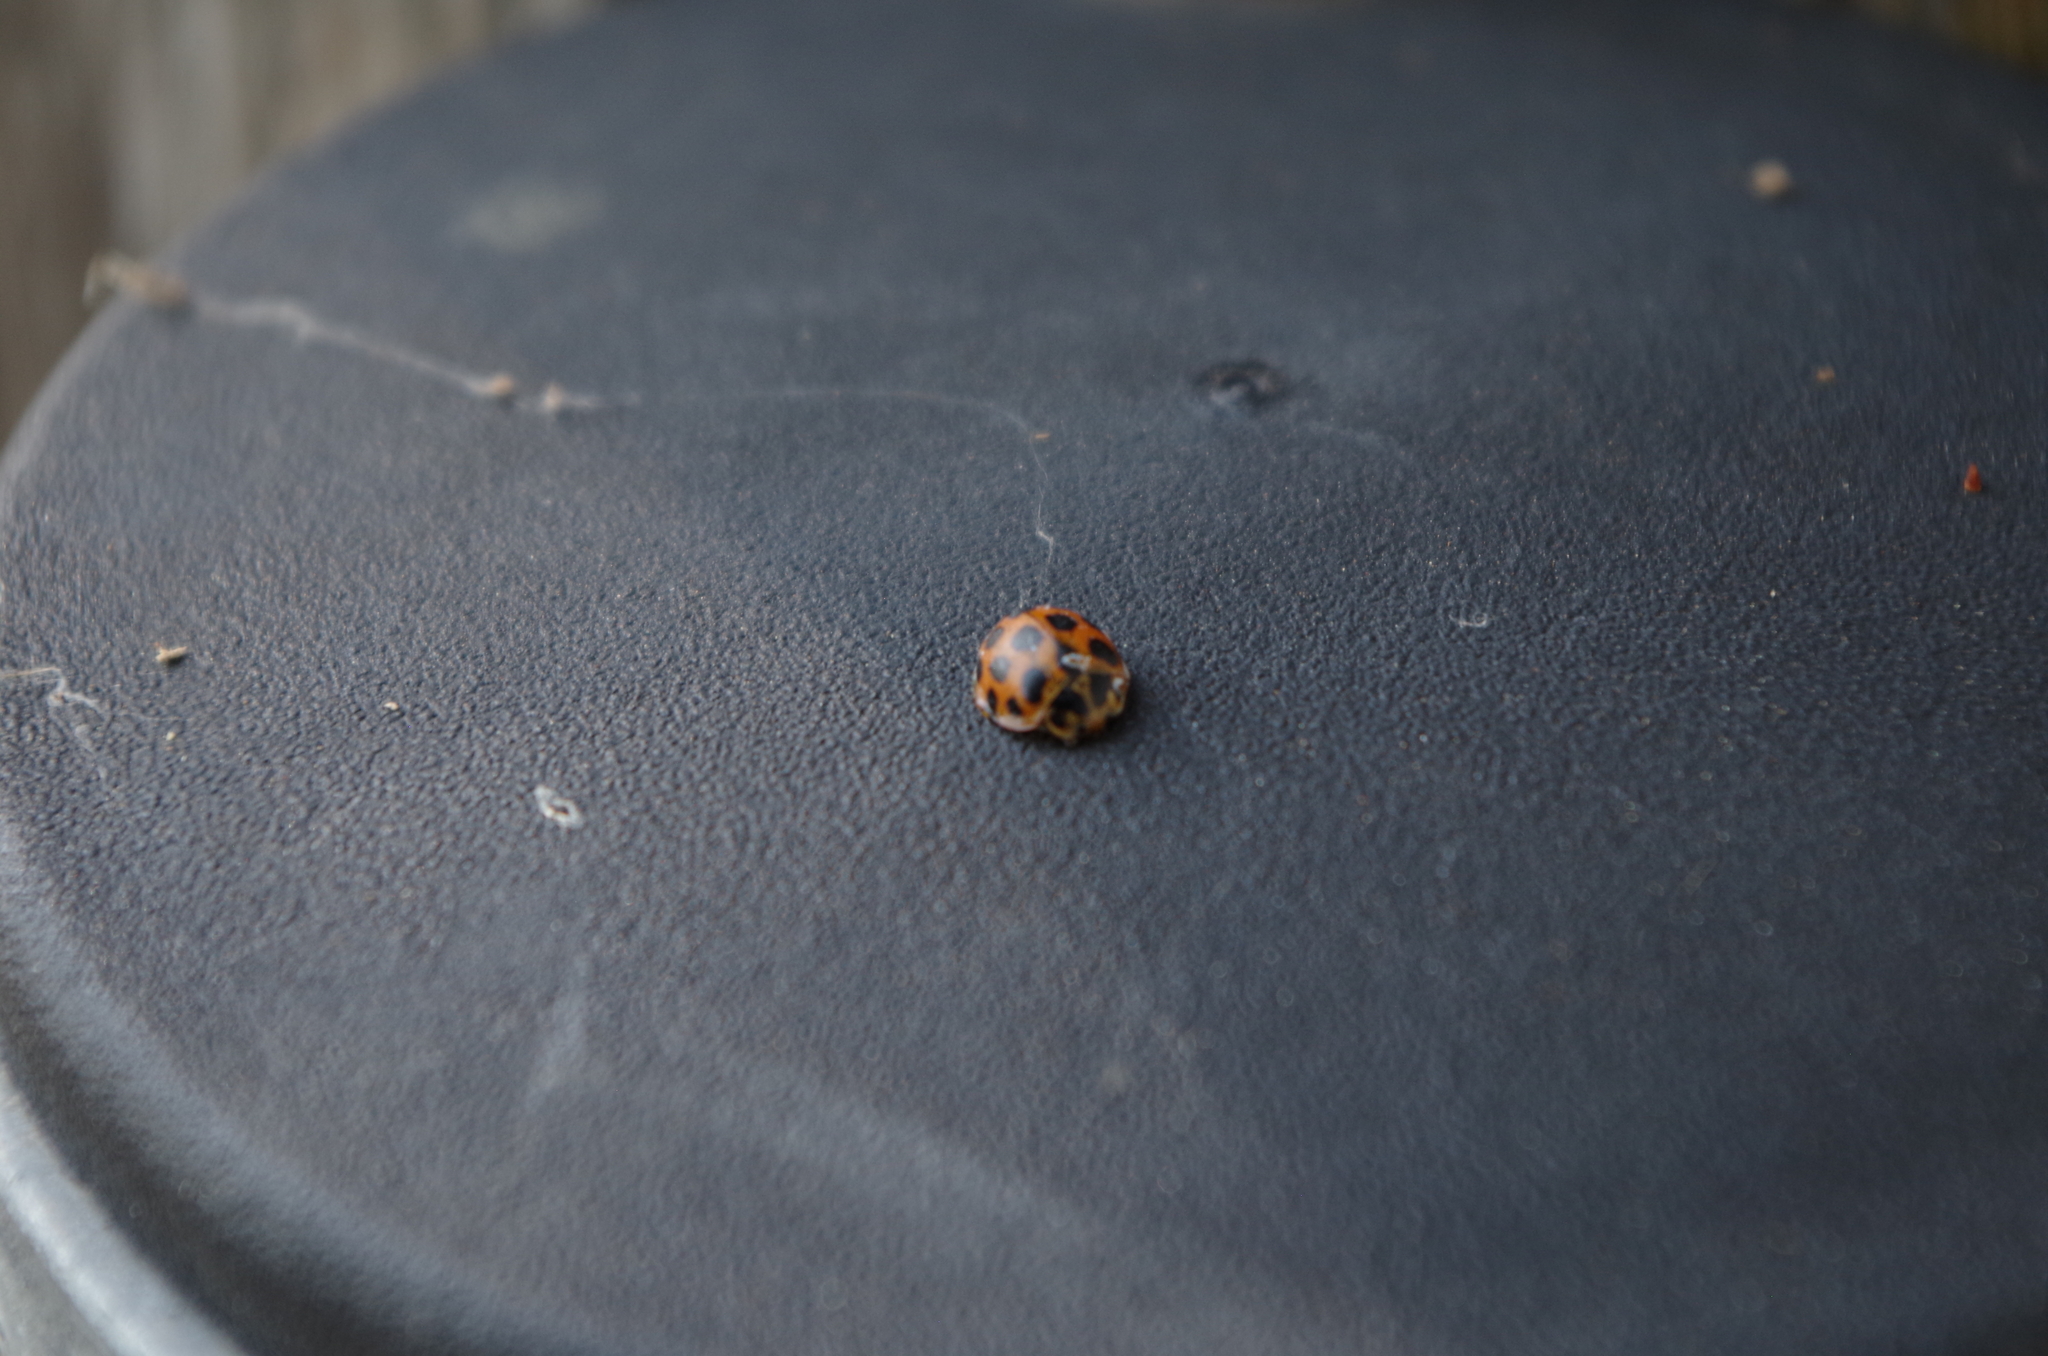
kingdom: Animalia
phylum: Arthropoda
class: Insecta
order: Coleoptera
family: Coccinellidae
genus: Harmonia
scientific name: Harmonia conformis
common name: Common spotted ladybird beetle
